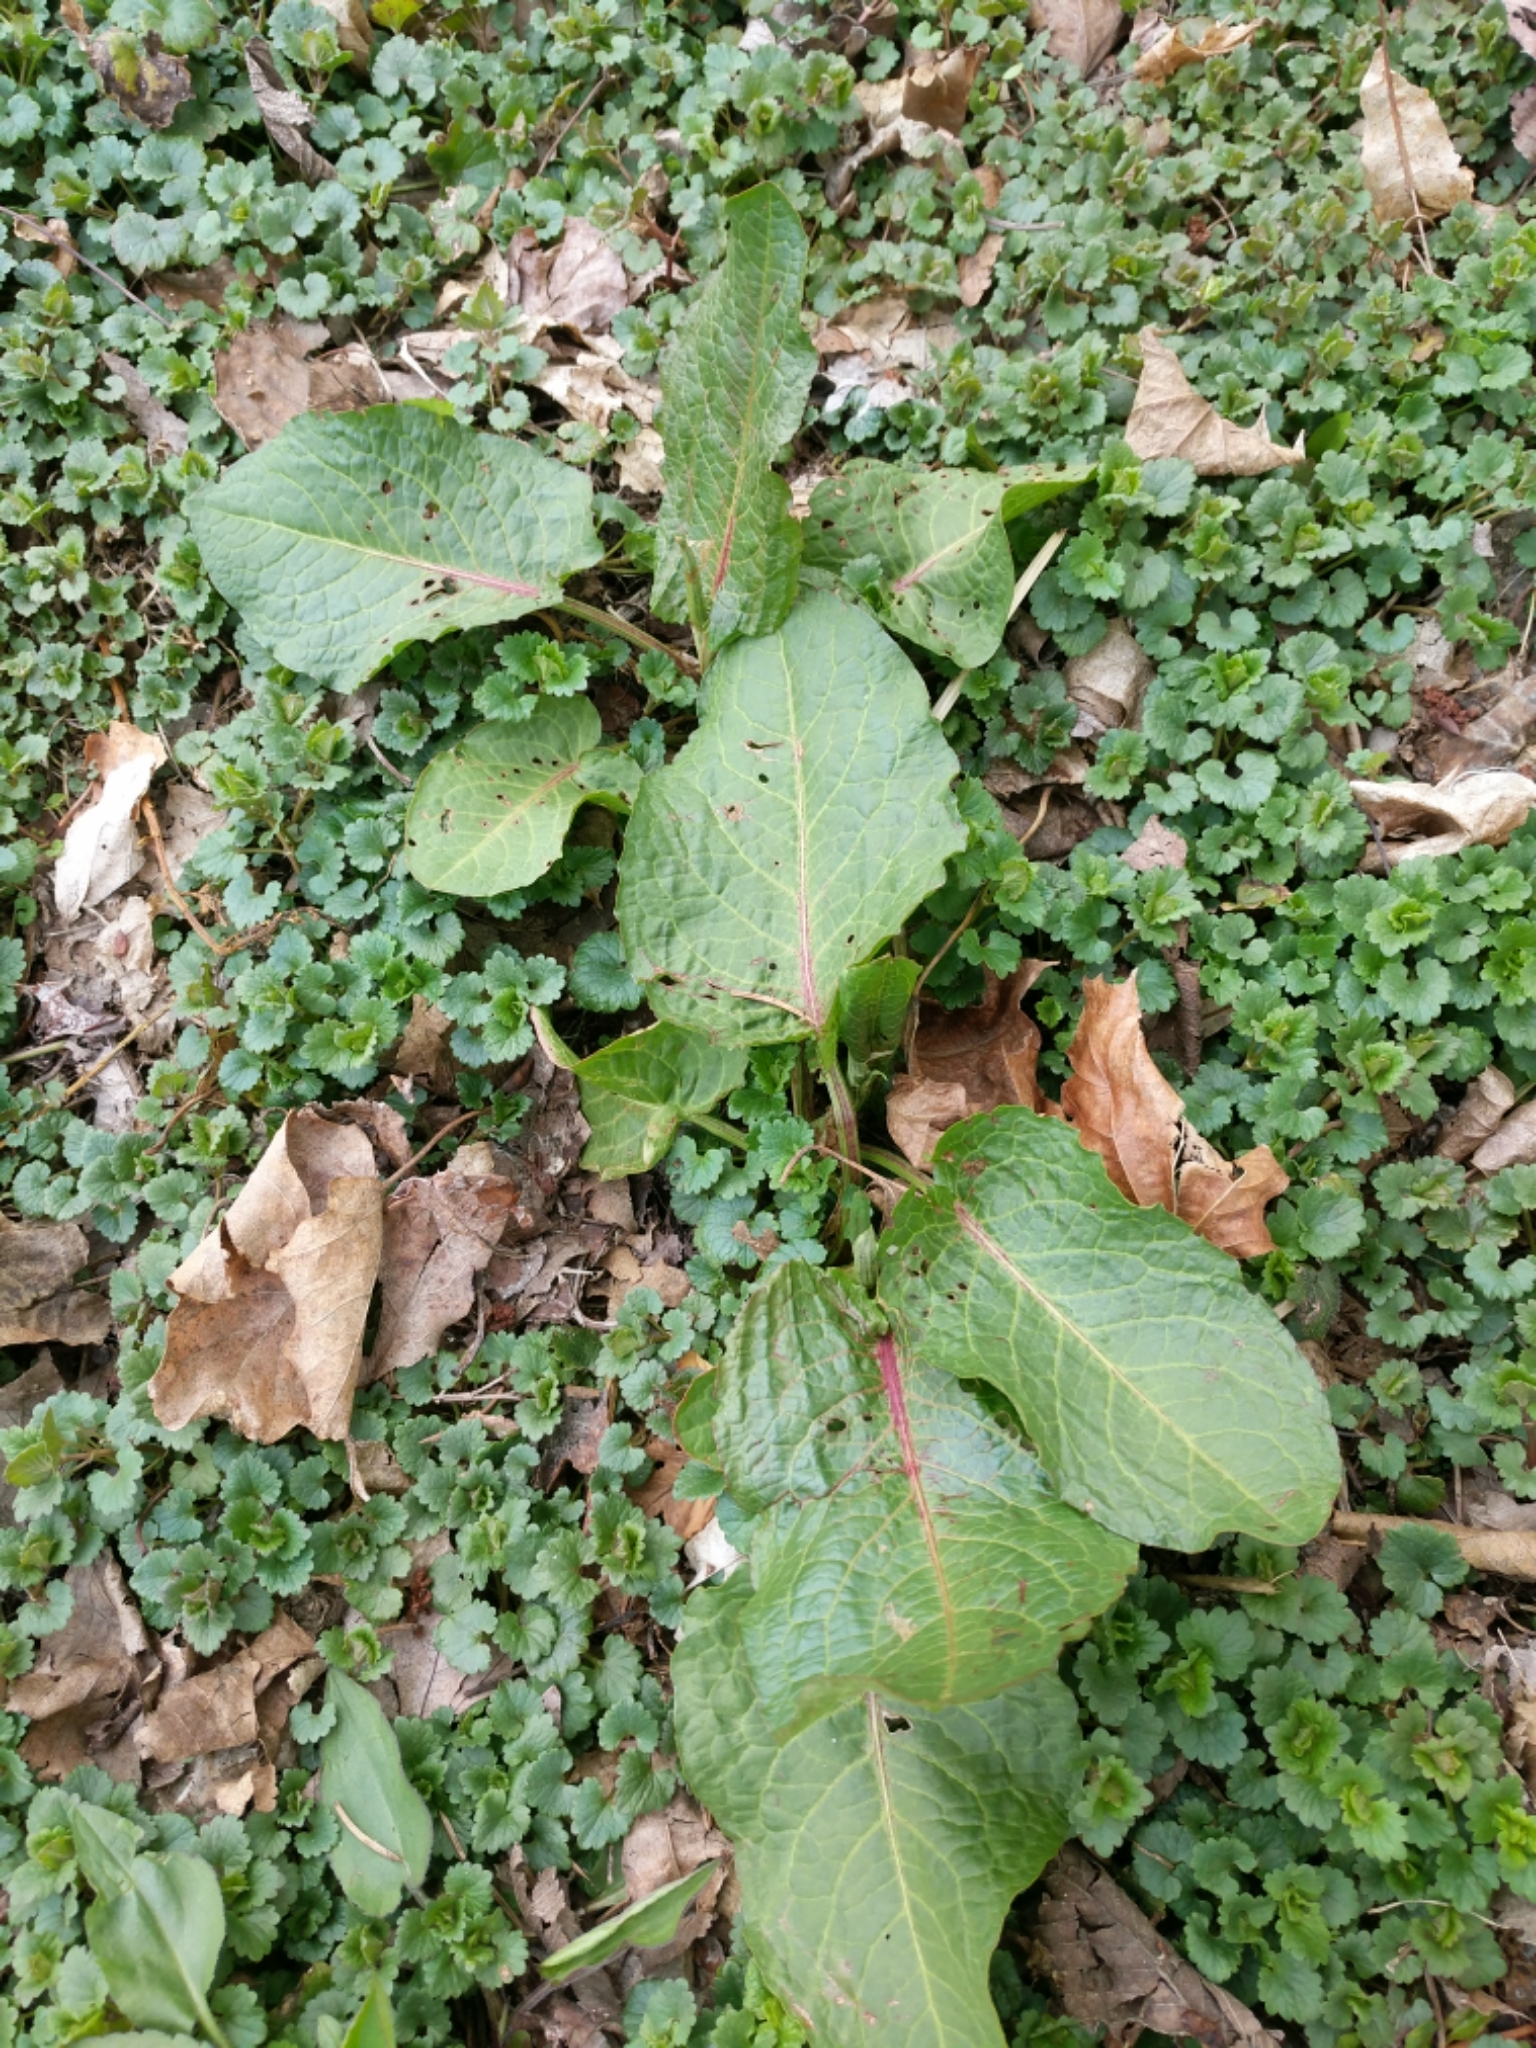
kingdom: Plantae
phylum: Tracheophyta
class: Magnoliopsida
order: Caryophyllales
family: Polygonaceae
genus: Rumex
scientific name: Rumex obtusifolius
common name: Bitter dock
